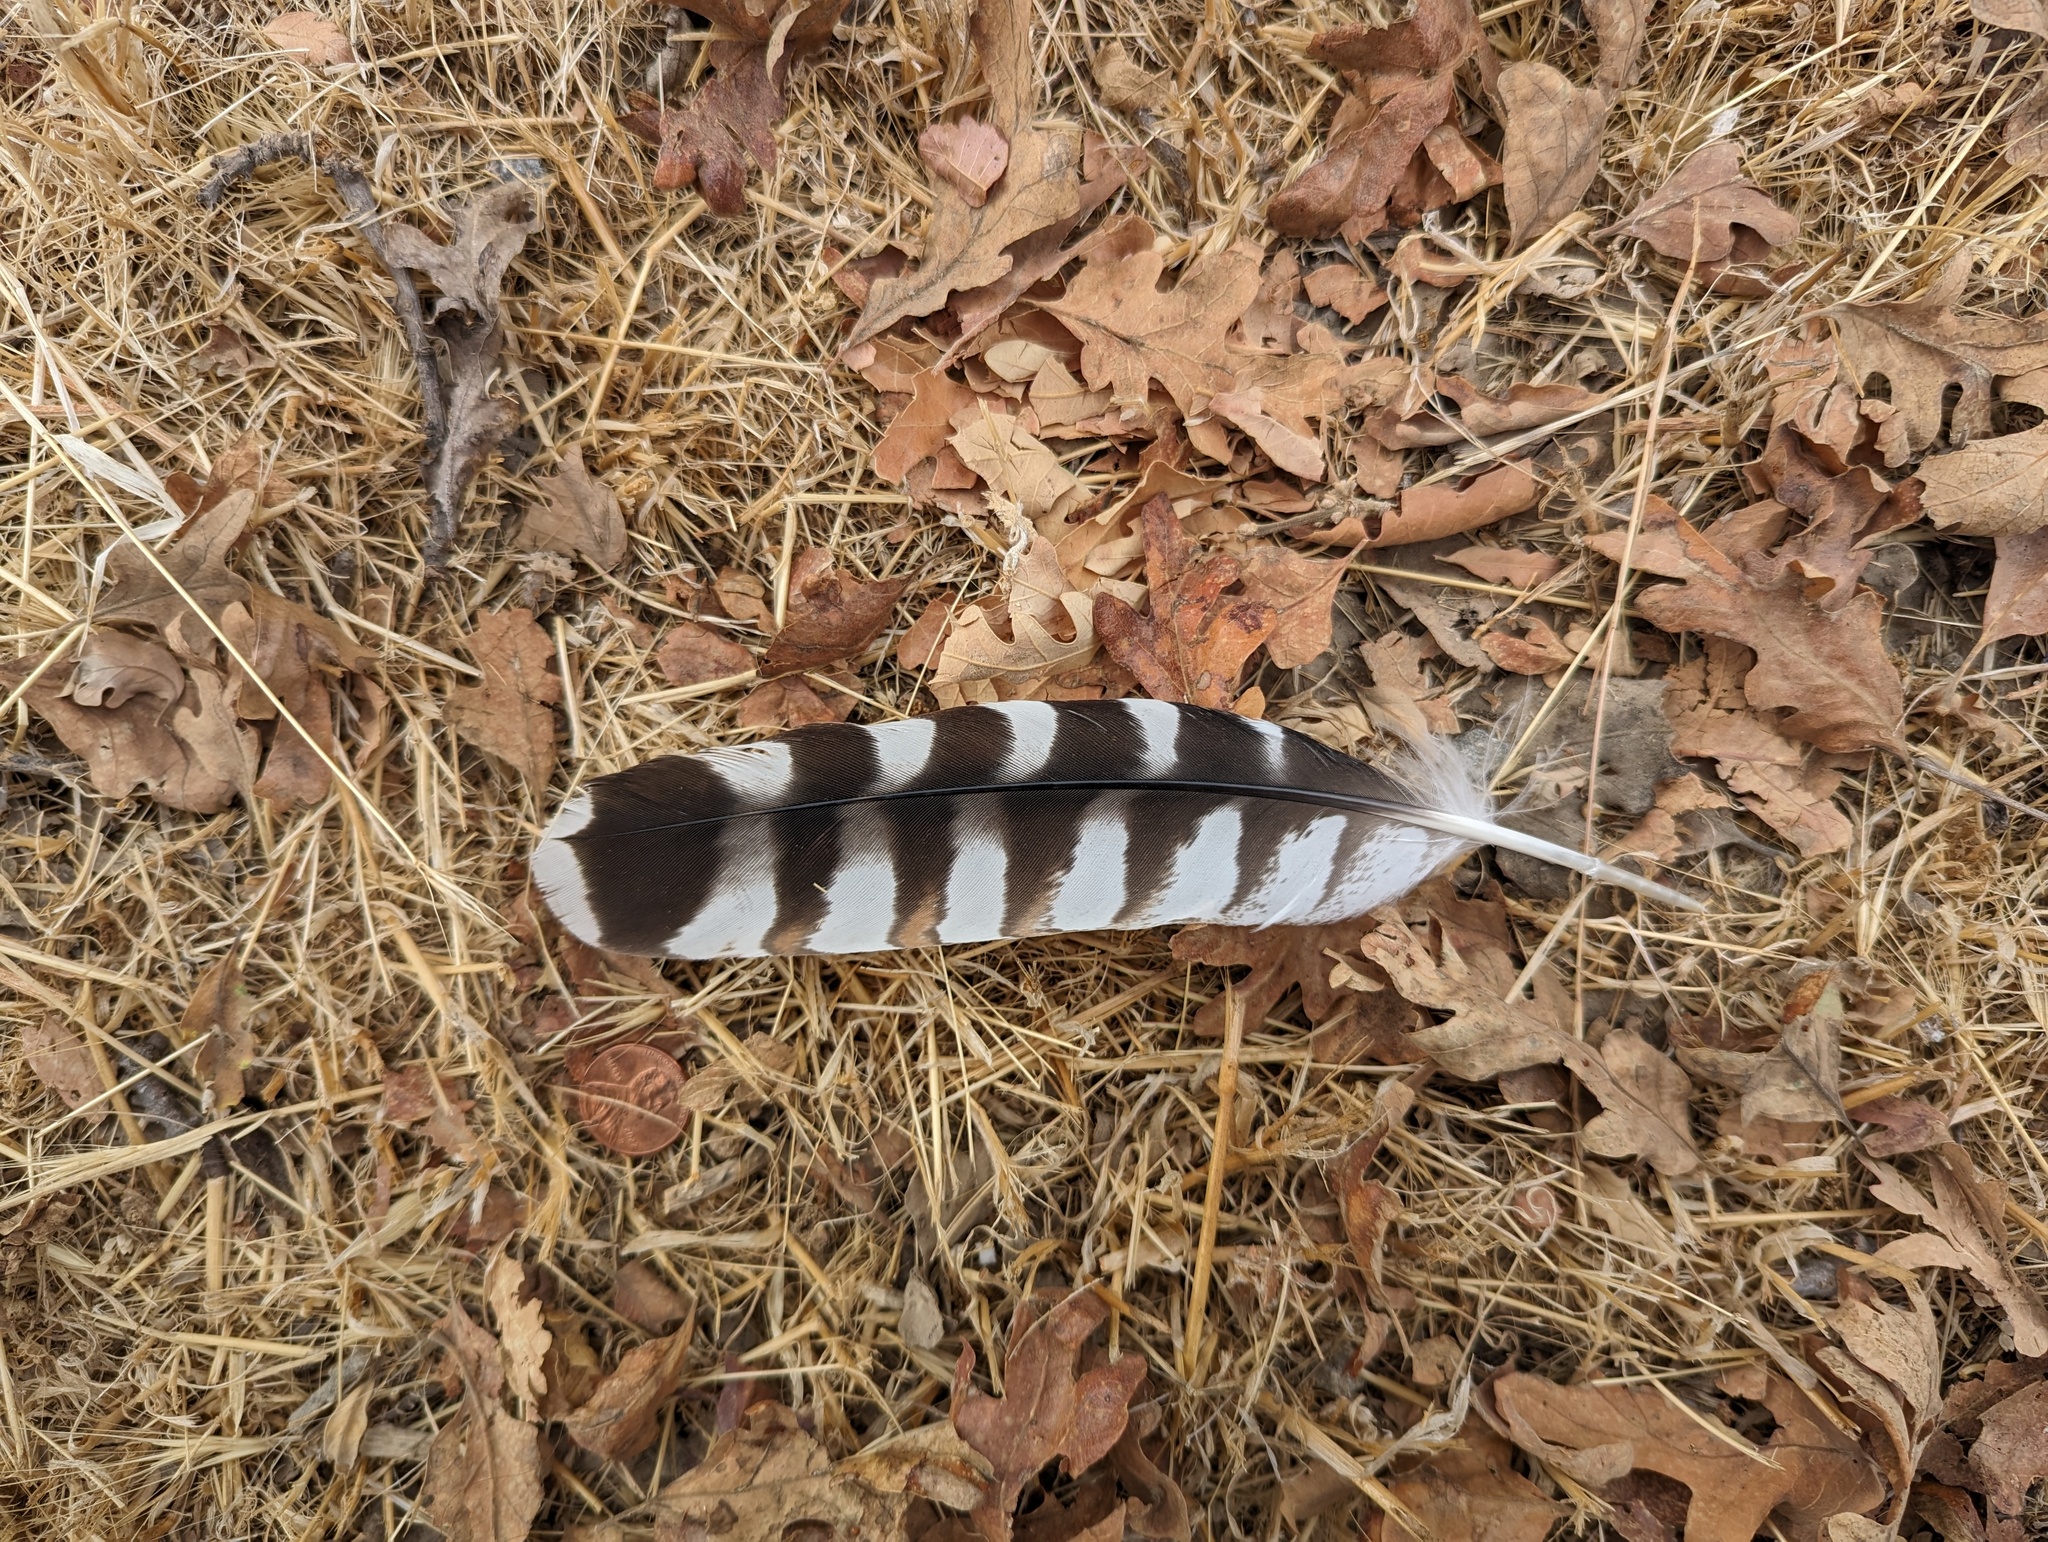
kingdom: Animalia
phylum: Chordata
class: Aves
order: Accipitriformes
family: Accipitridae
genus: Buteo
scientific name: Buteo lineatus
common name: Red-shouldered hawk
